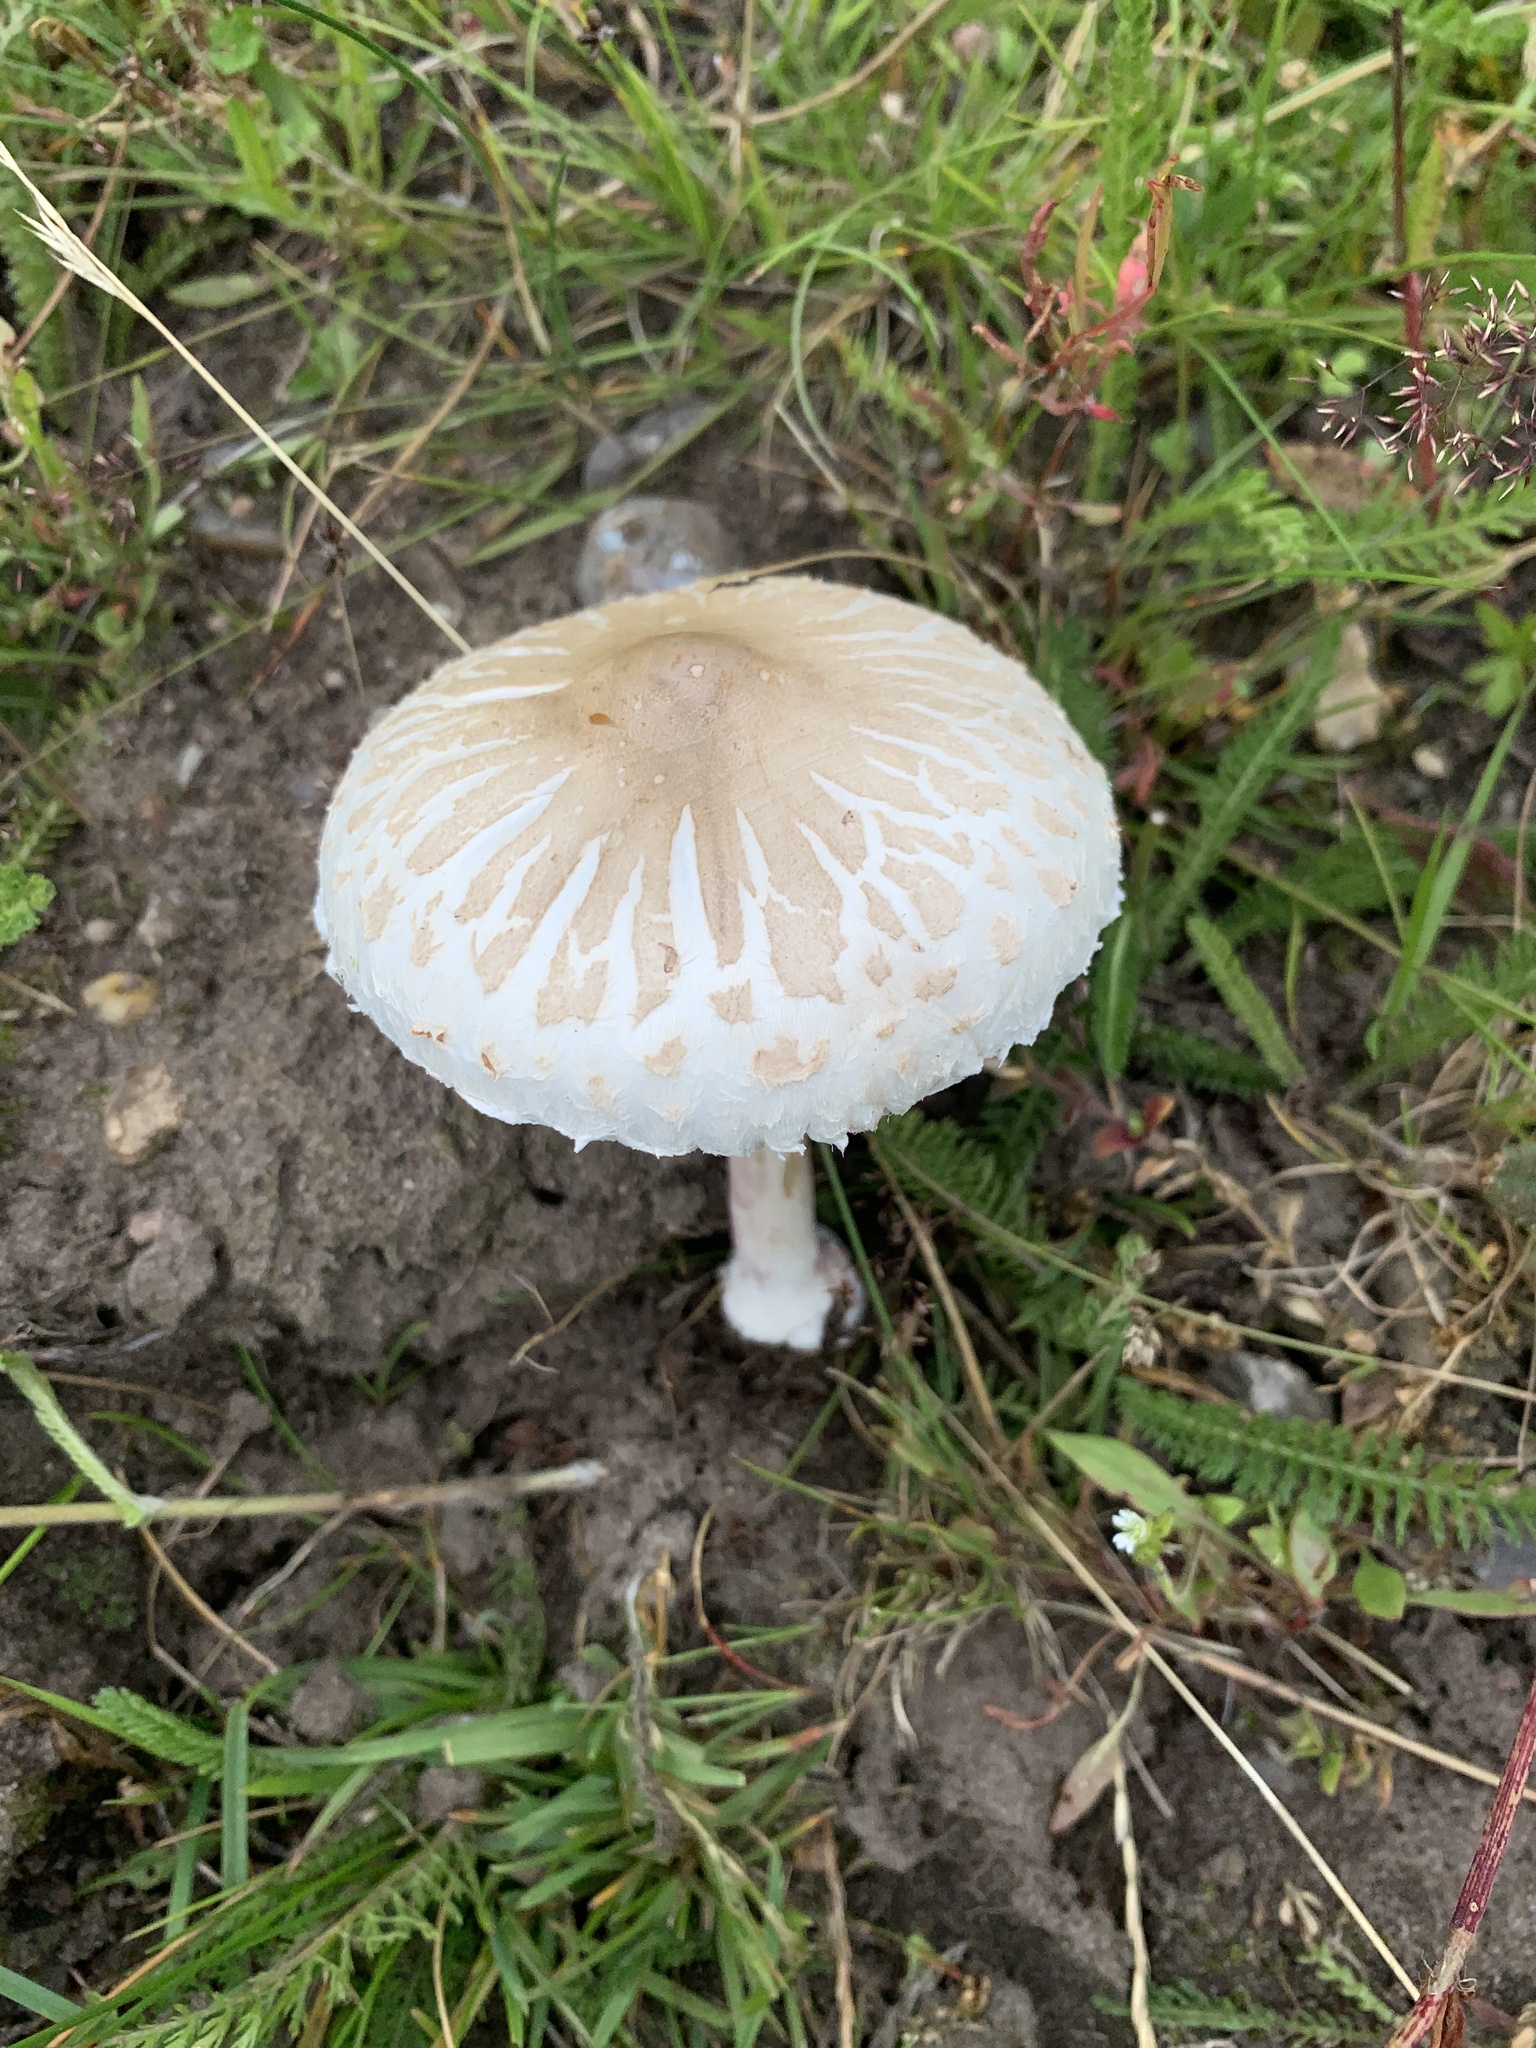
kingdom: Fungi
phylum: Basidiomycota
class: Agaricomycetes
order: Agaricales
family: Agaricaceae
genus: Macrolepiota
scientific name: Macrolepiota excoriata
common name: Frayed parasol
